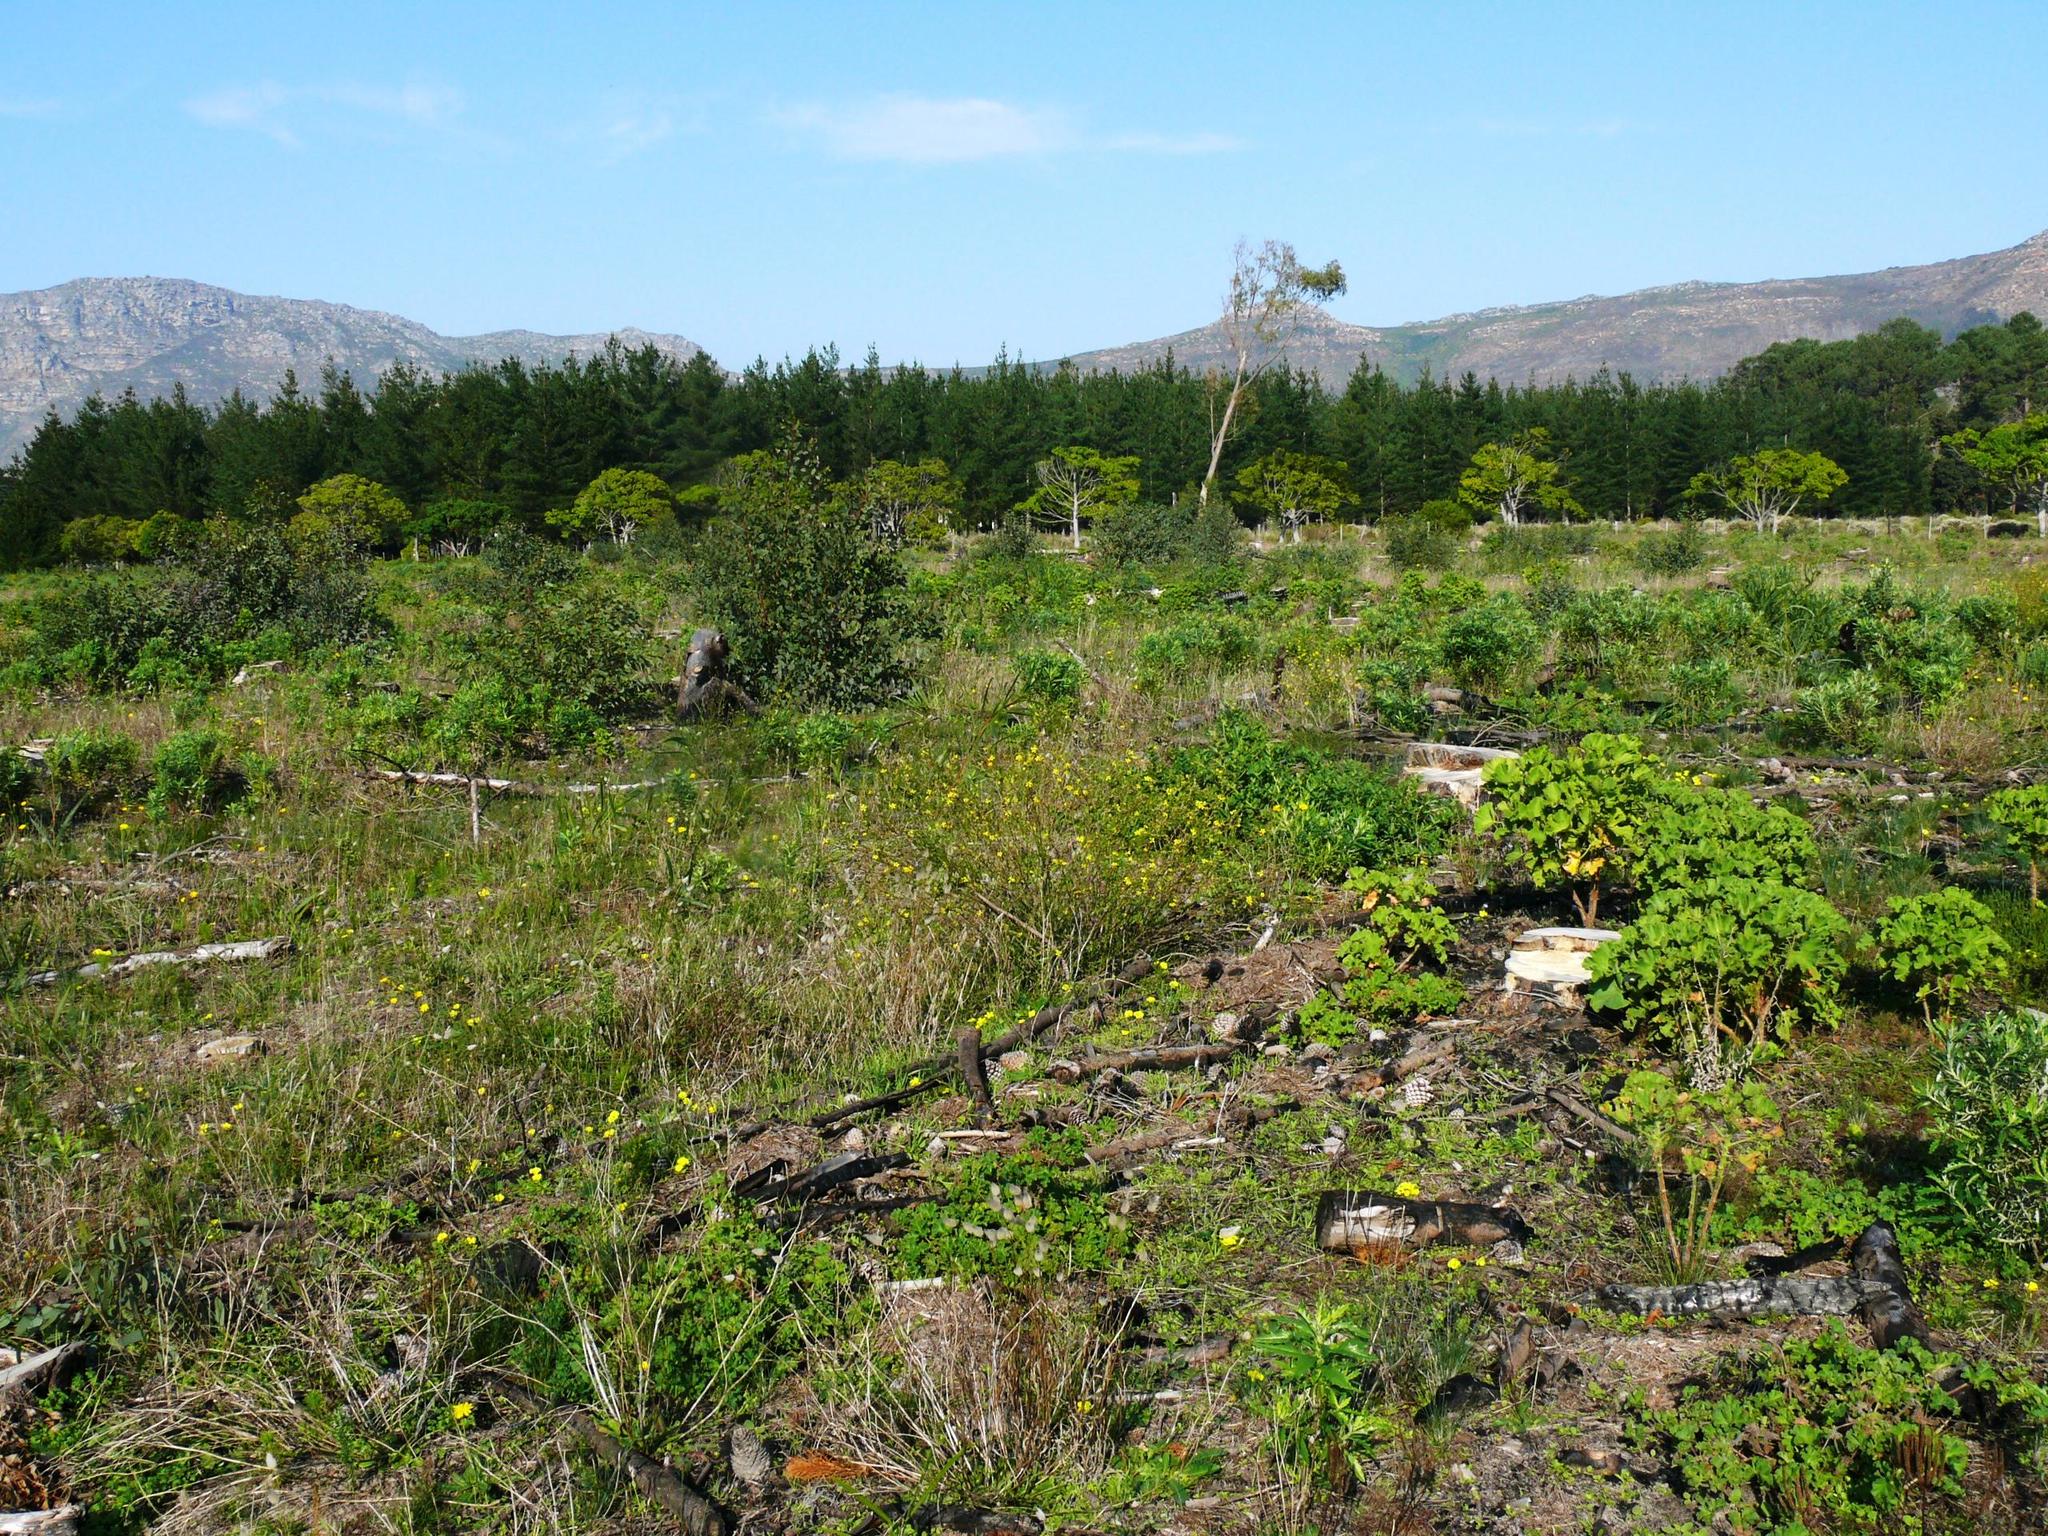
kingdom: Plantae
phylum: Tracheophyta
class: Magnoliopsida
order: Asterales
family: Asteraceae
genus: Senecio
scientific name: Senecio burchellii
